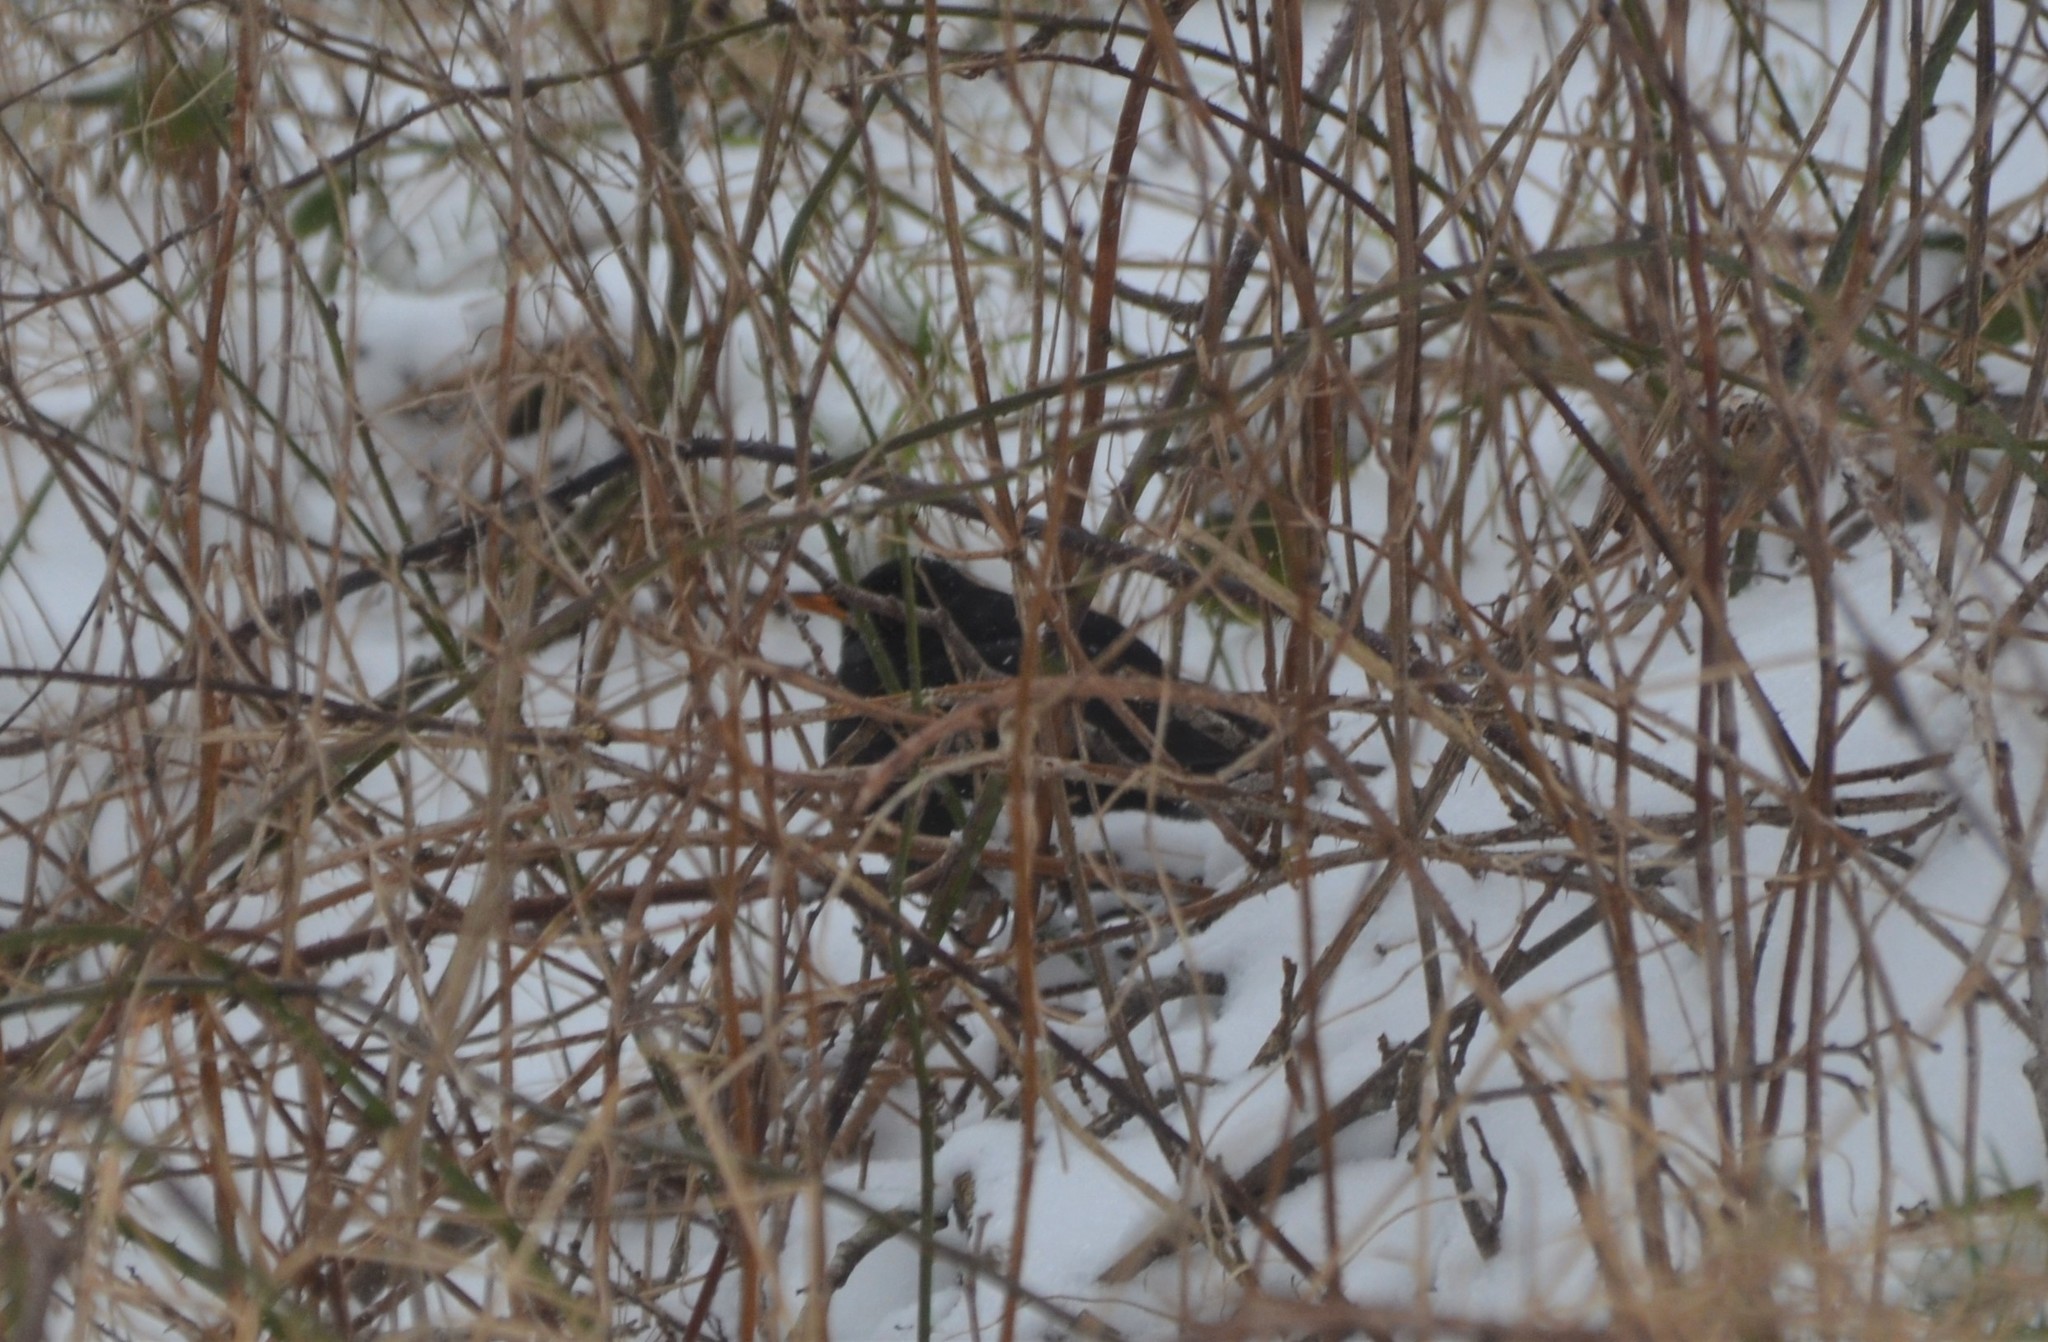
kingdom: Animalia
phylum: Chordata
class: Aves
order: Passeriformes
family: Turdidae
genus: Turdus
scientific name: Turdus merula
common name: Common blackbird
